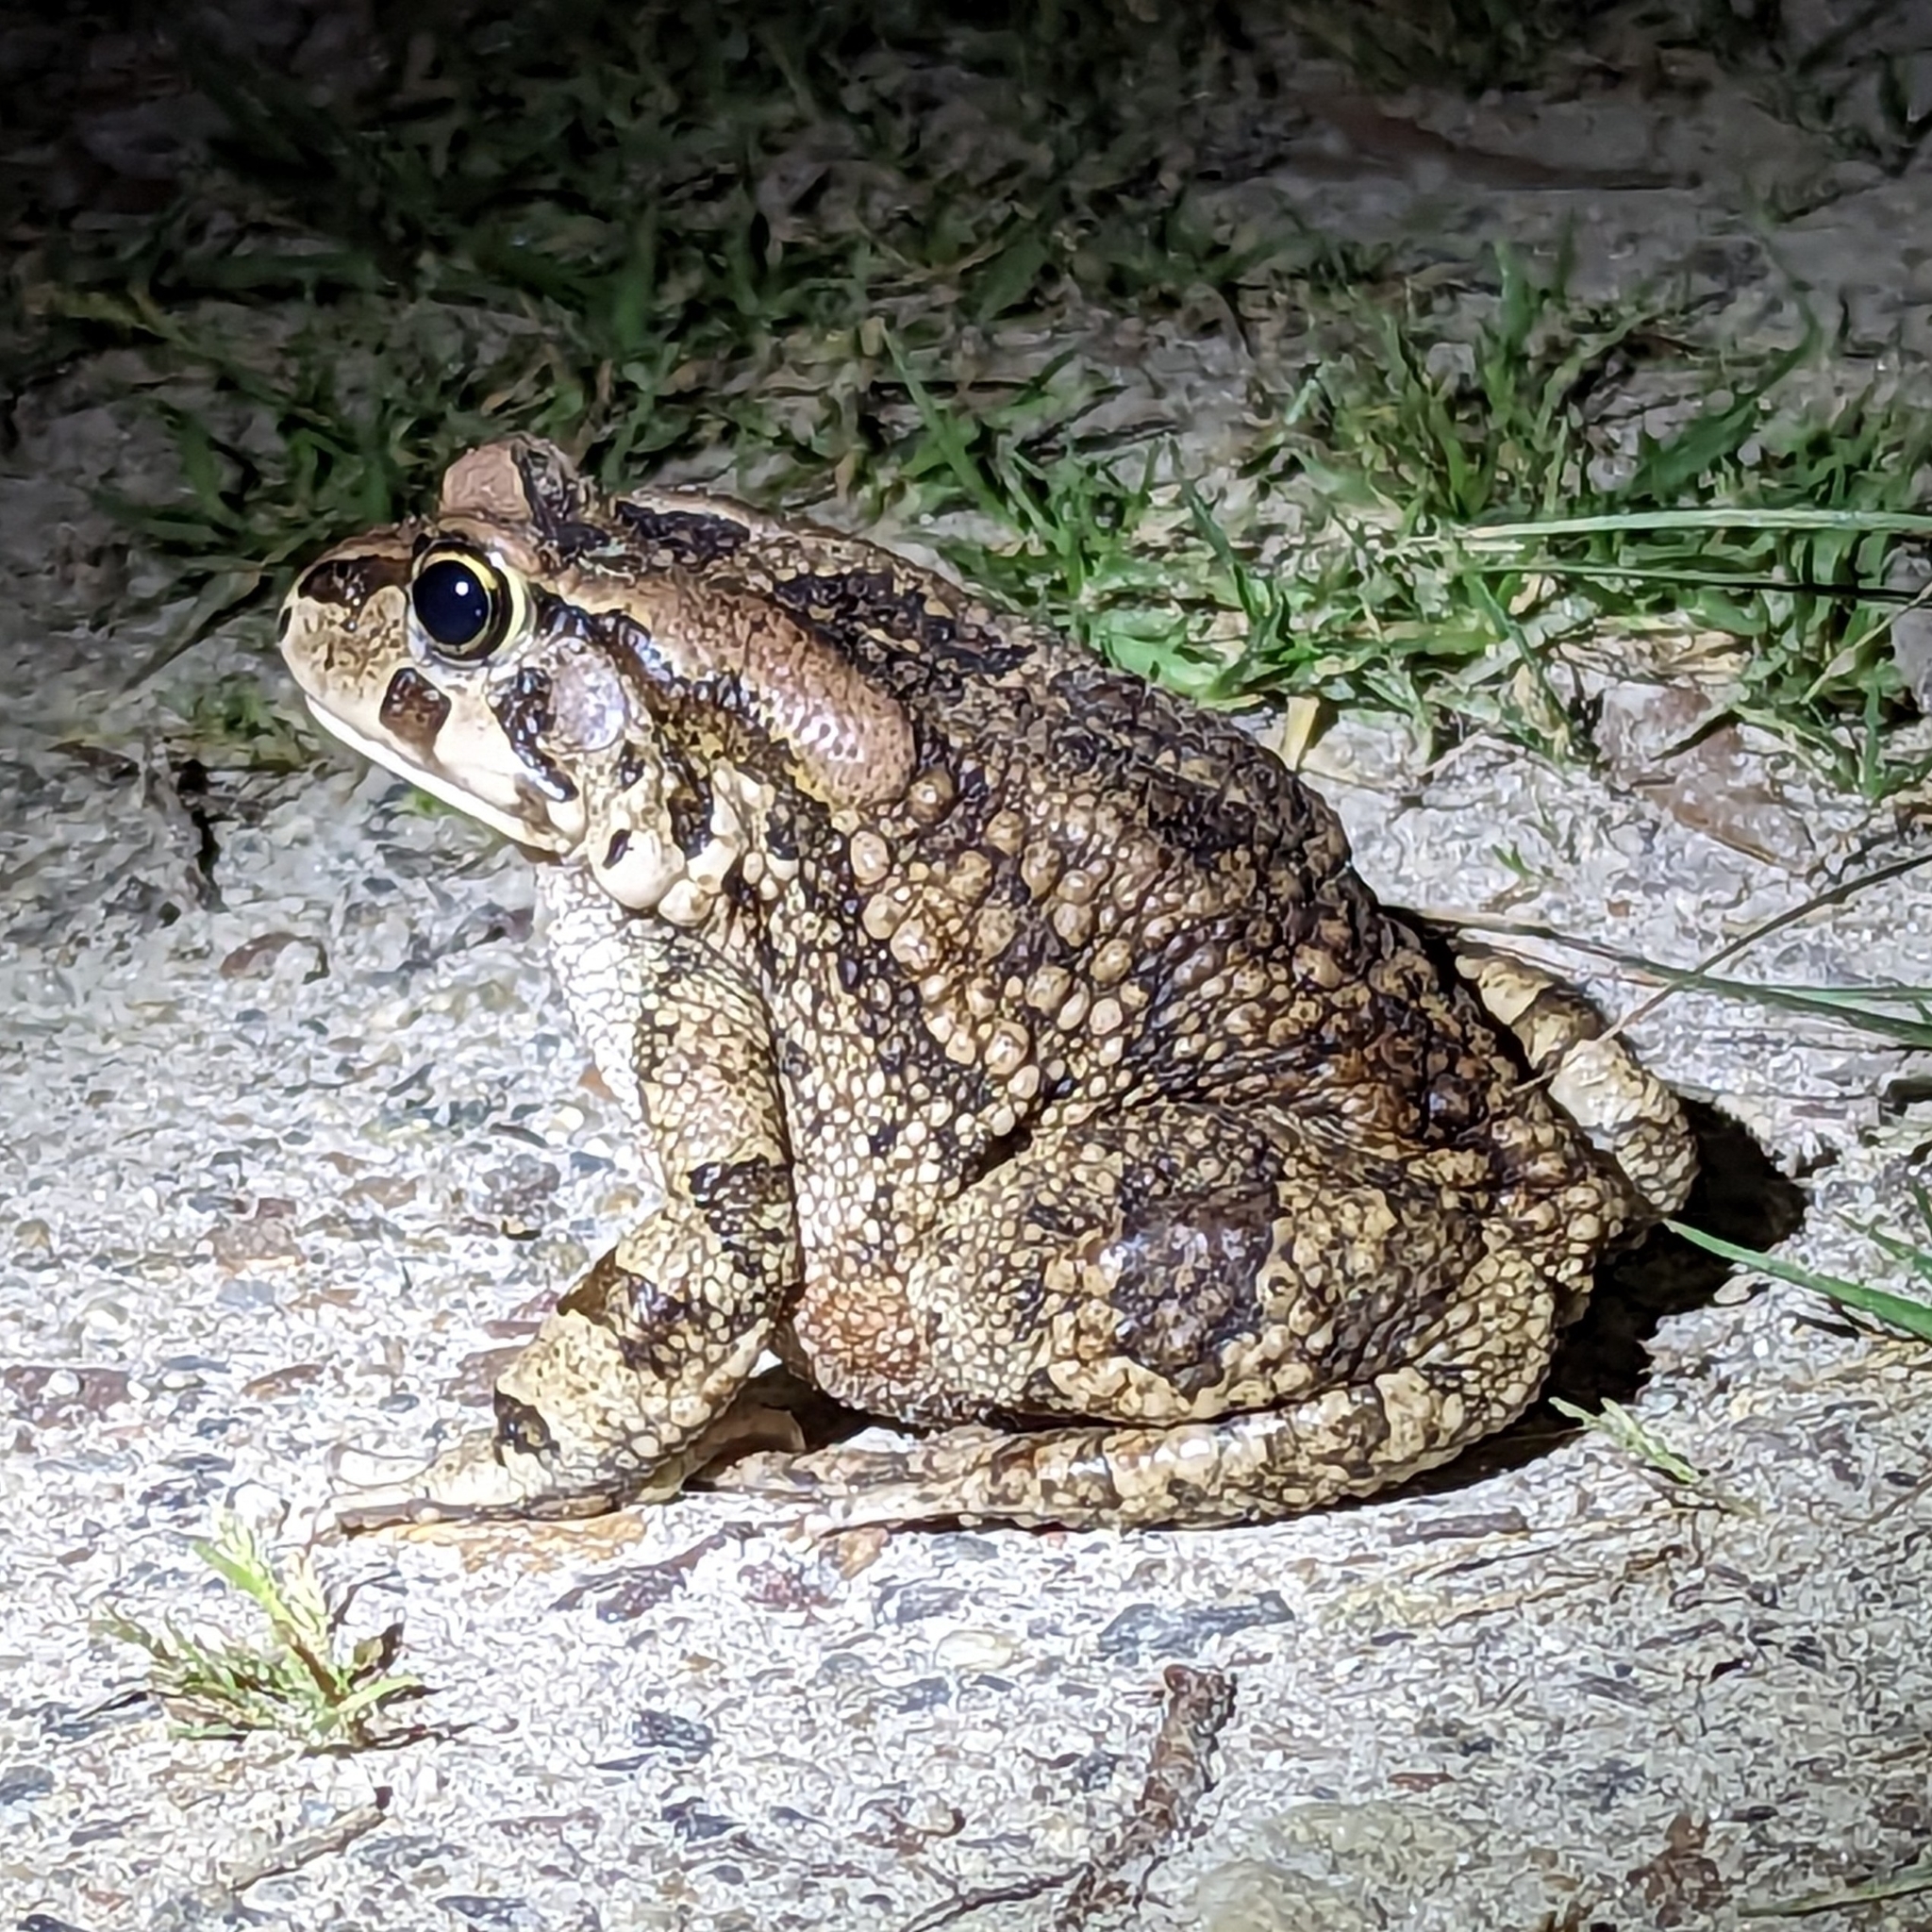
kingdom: Animalia
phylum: Chordata
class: Amphibia
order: Anura
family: Bufonidae
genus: Sclerophrys
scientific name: Sclerophrys capensis
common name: Ranger’s toad
